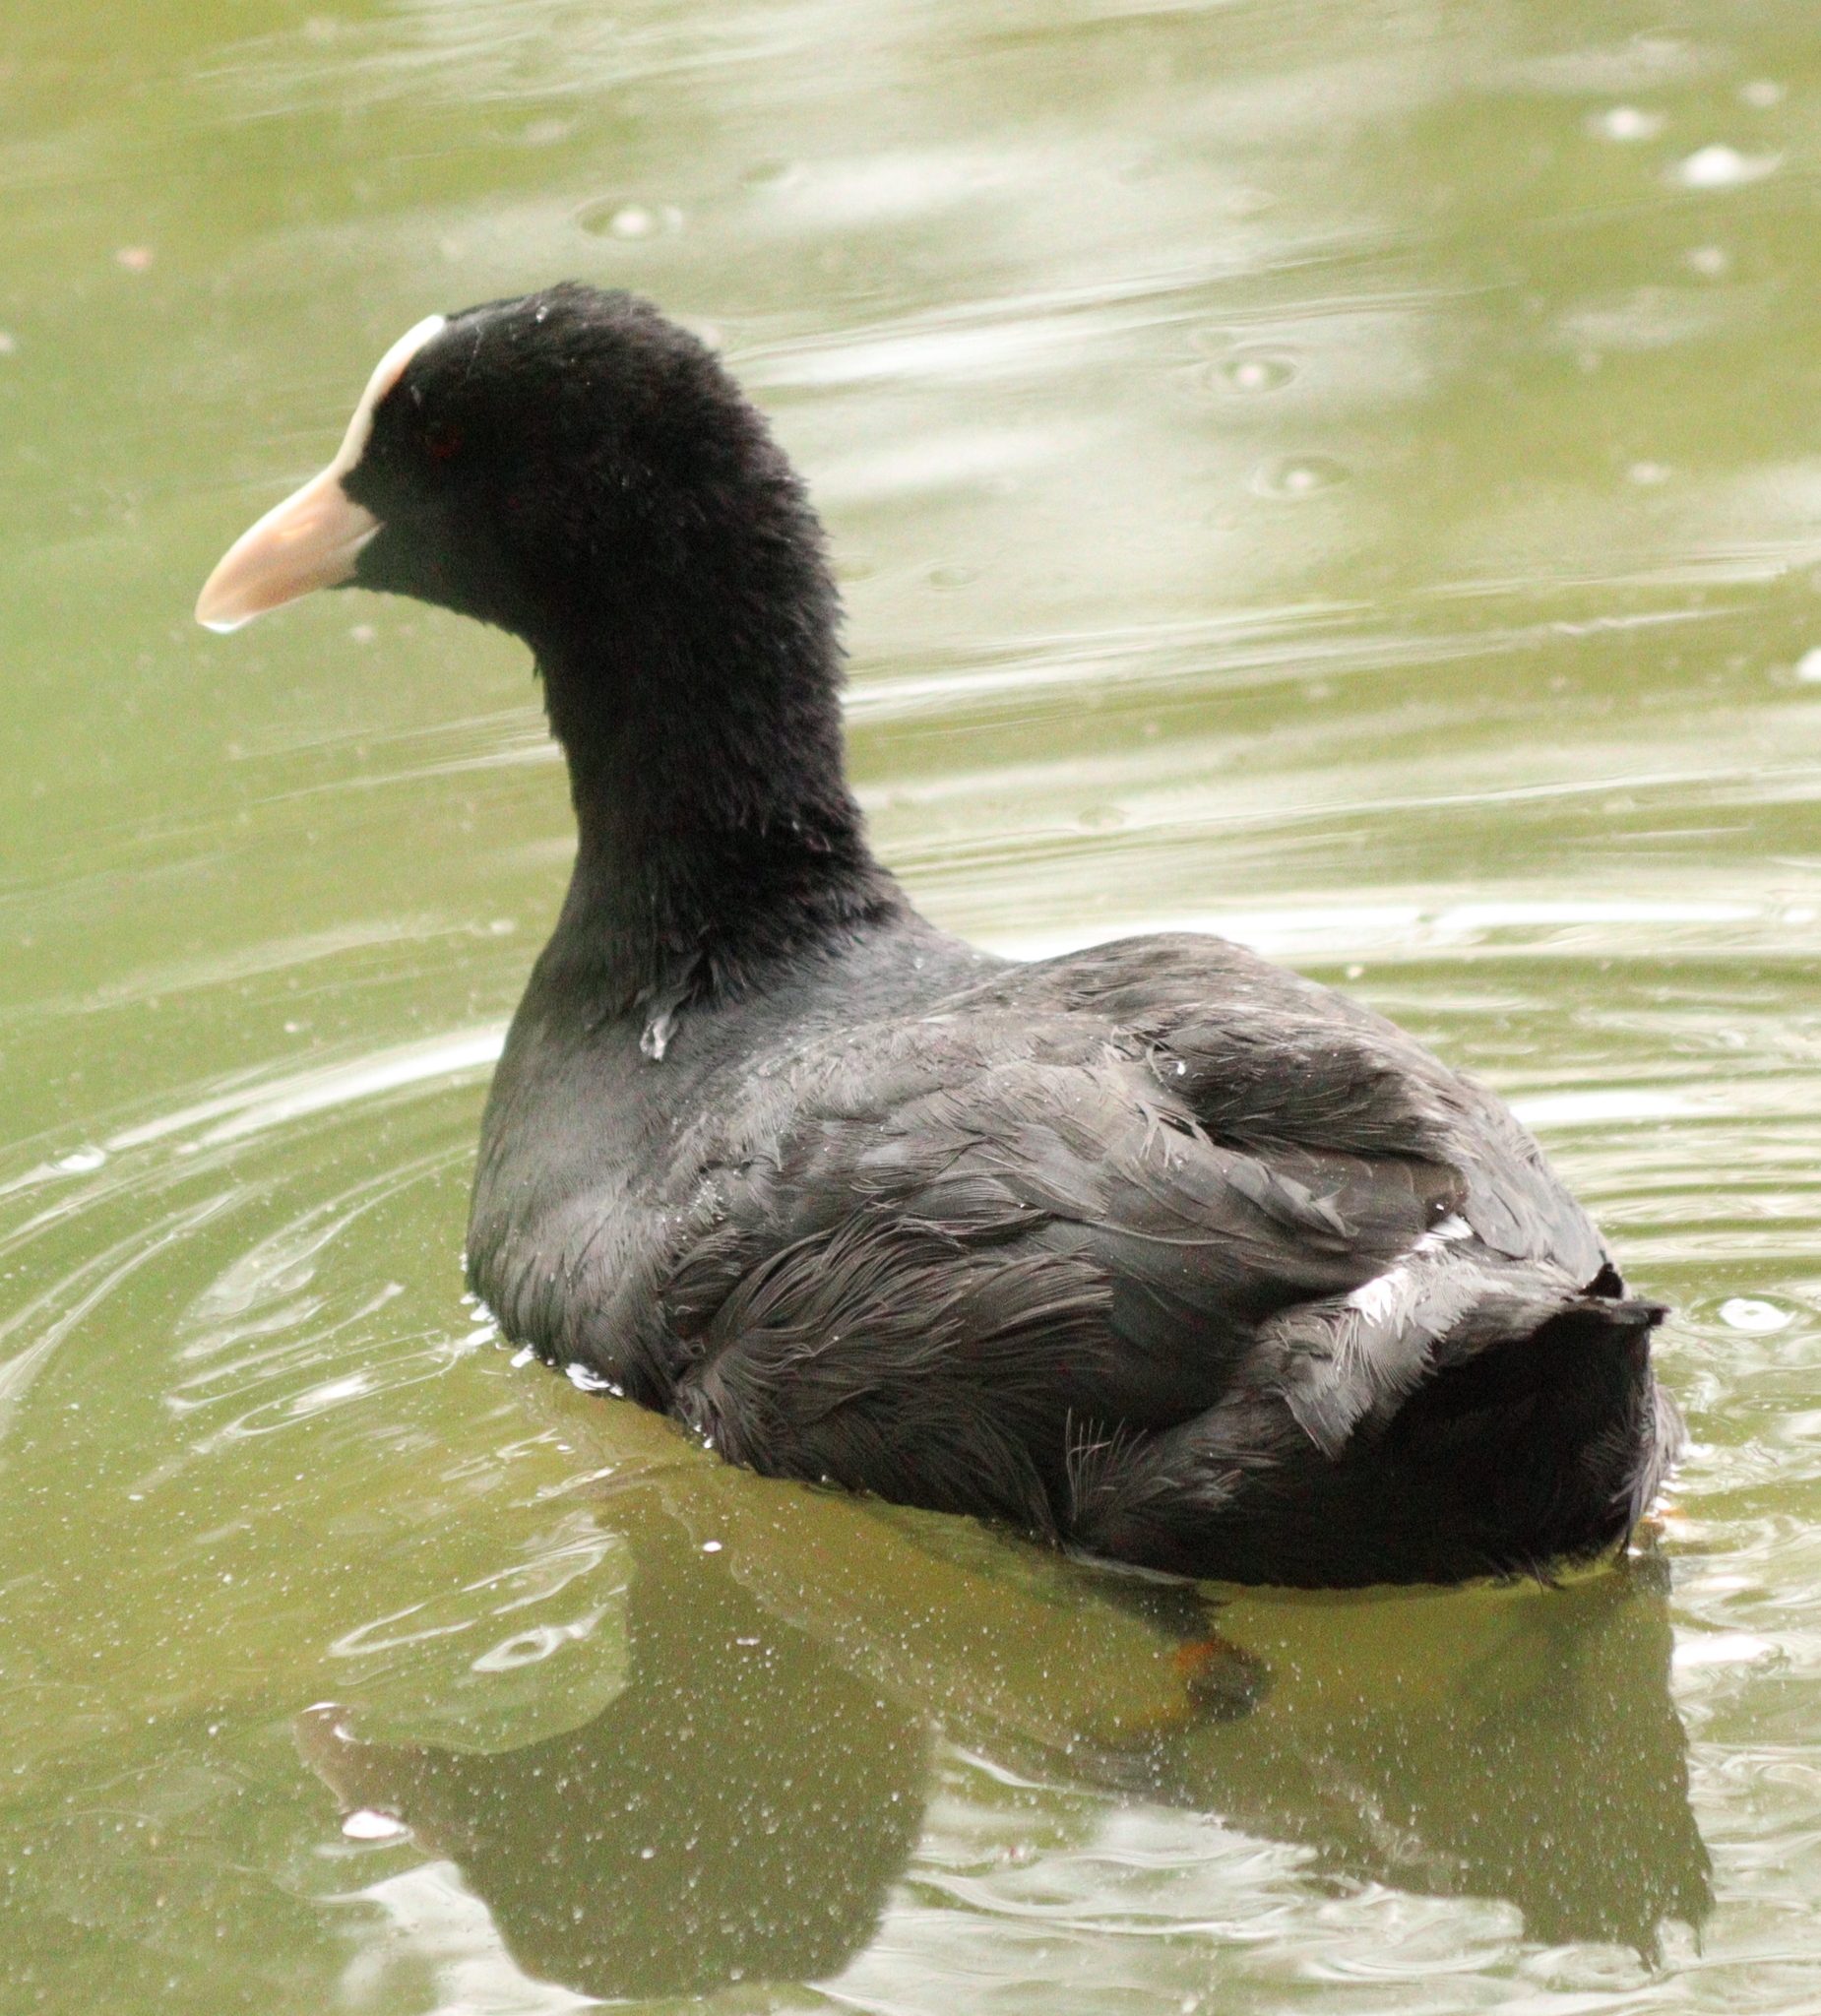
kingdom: Animalia
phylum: Chordata
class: Aves
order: Gruiformes
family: Rallidae
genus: Fulica
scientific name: Fulica atra
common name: Eurasian coot
